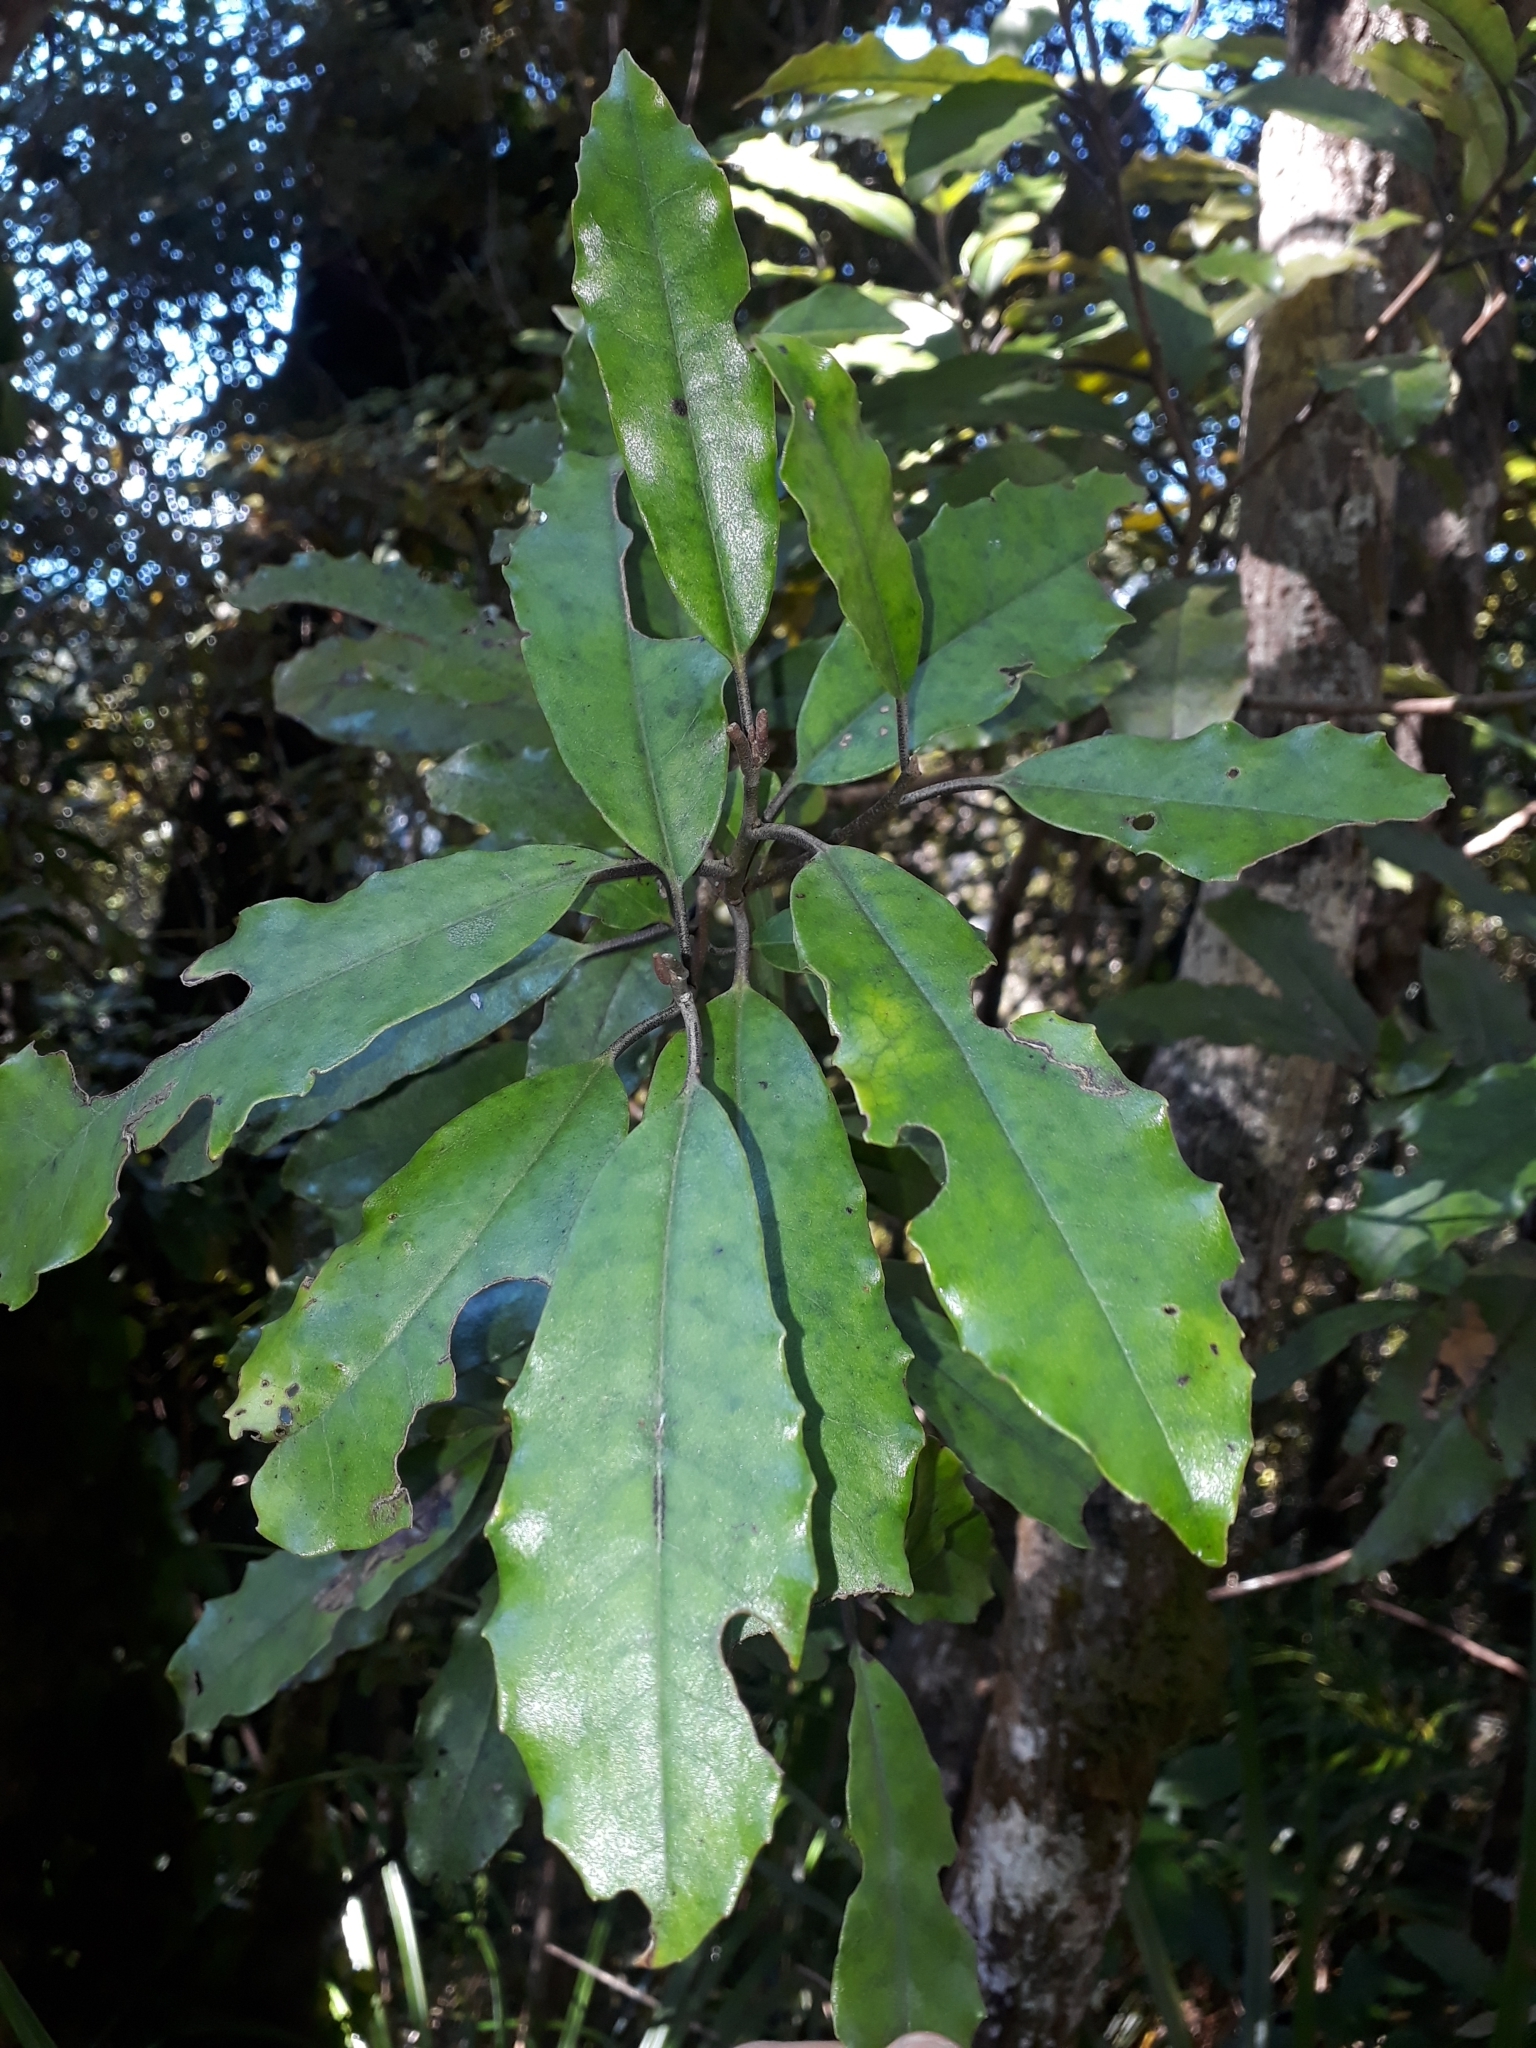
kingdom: Plantae
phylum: Tracheophyta
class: Magnoliopsida
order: Paracryphiales
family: Paracryphiaceae
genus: Quintinia
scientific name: Quintinia serrata
